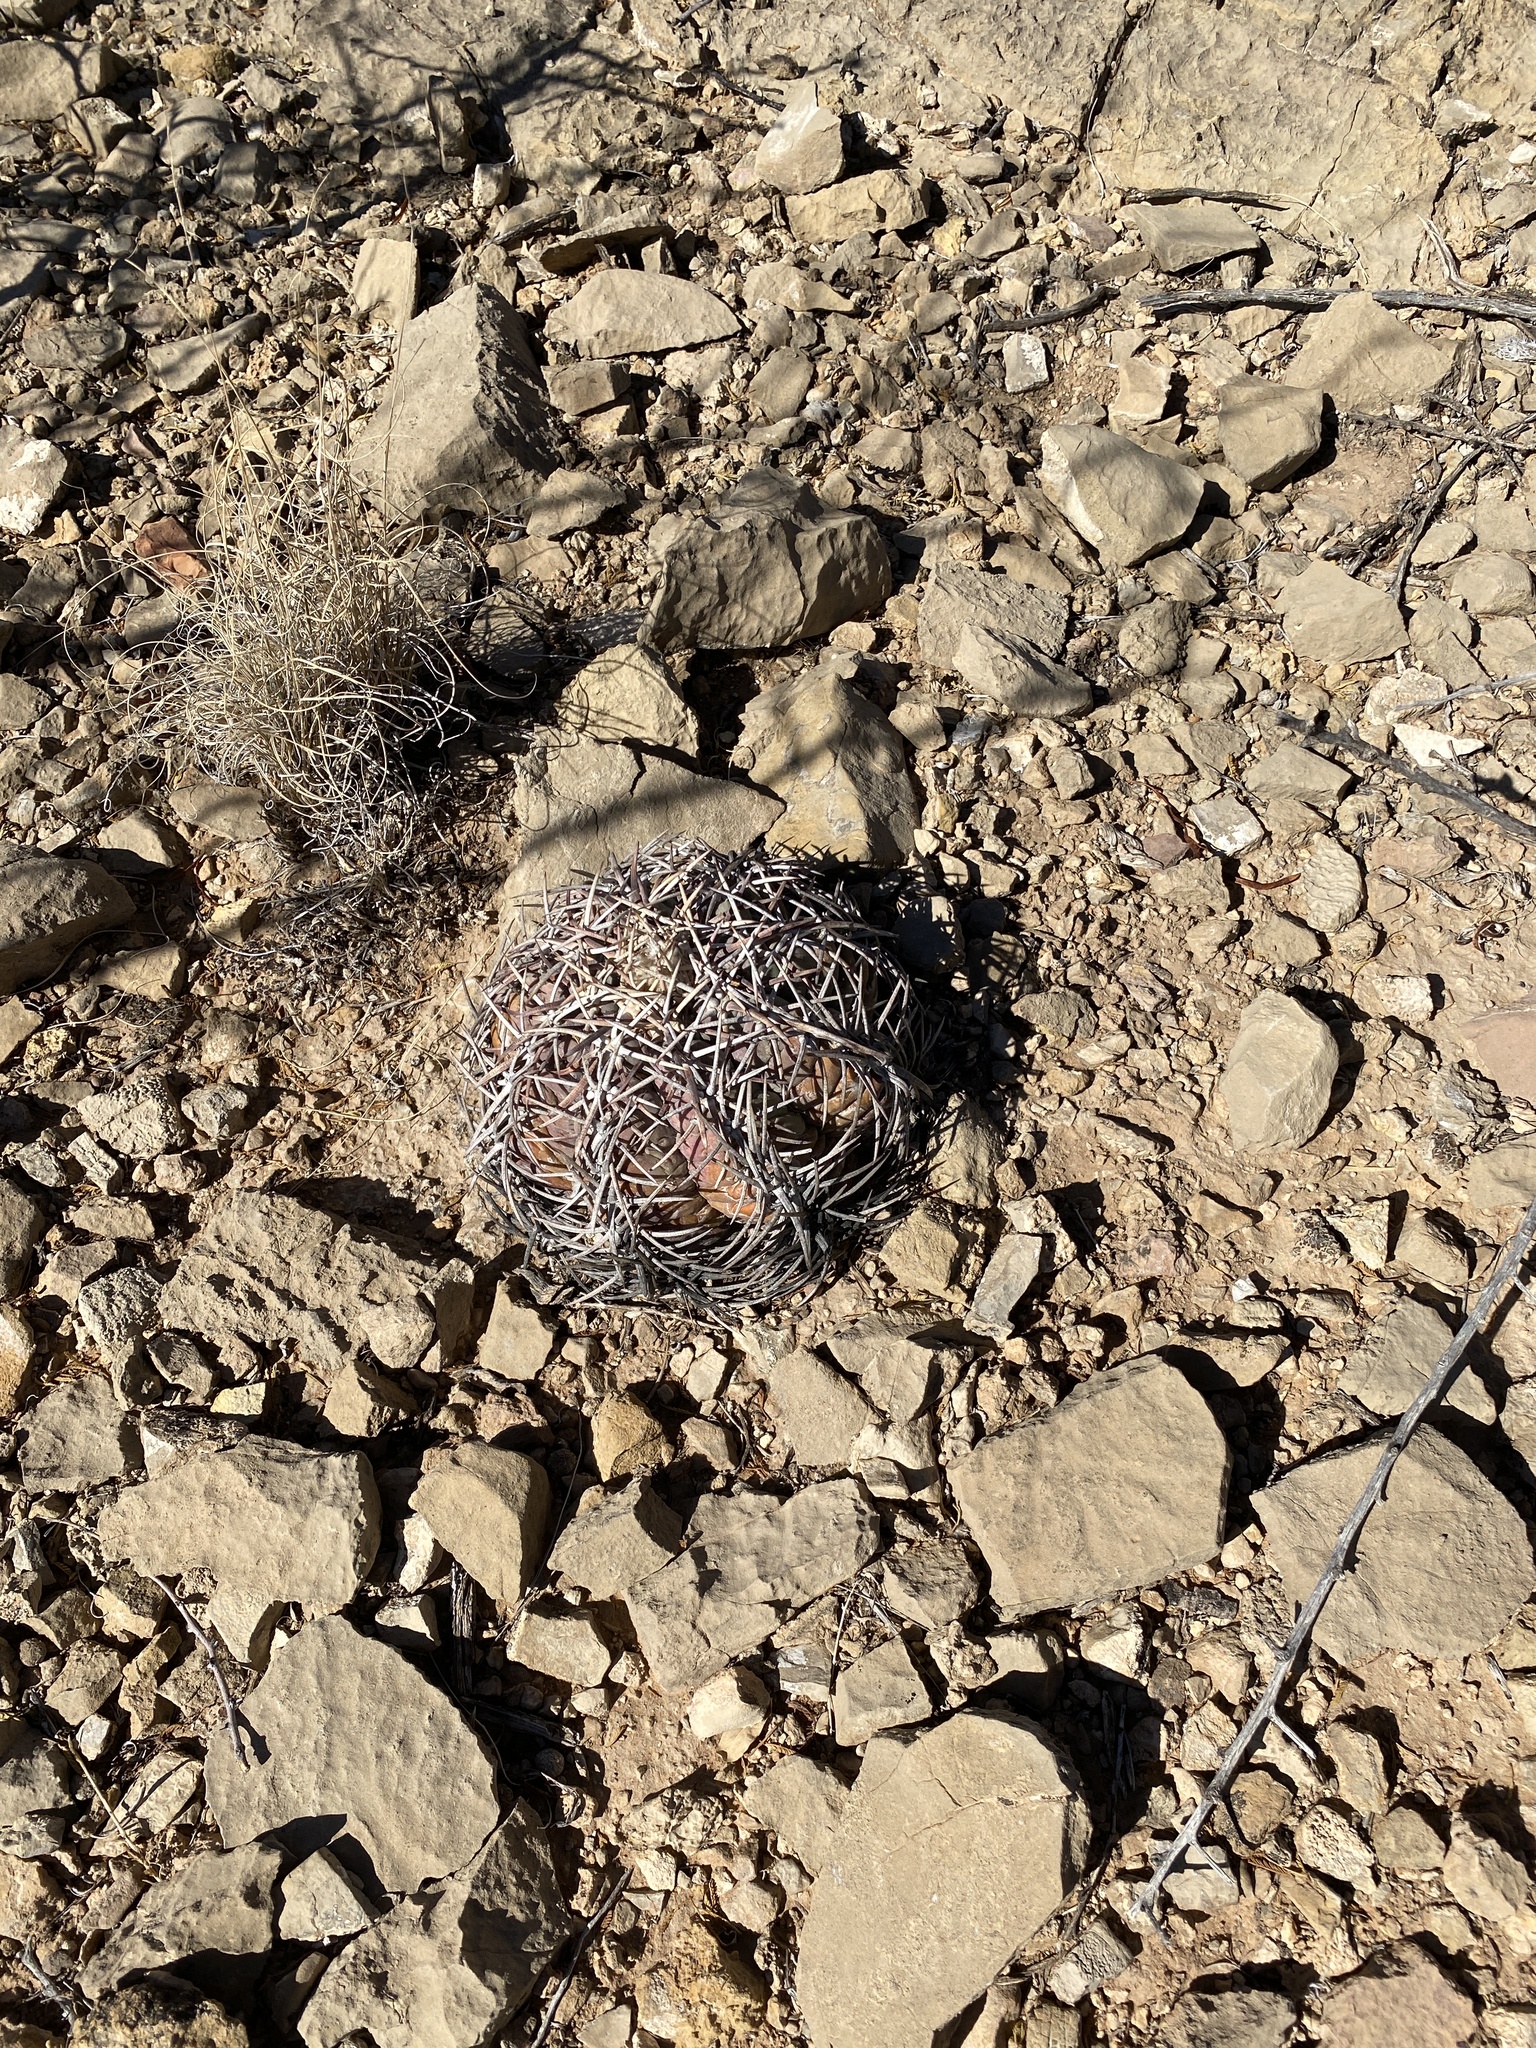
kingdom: Plantae
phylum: Tracheophyta
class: Magnoliopsida
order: Caryophyllales
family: Cactaceae
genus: Echinocactus
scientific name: Echinocactus horizonthalonius
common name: Devilshead
